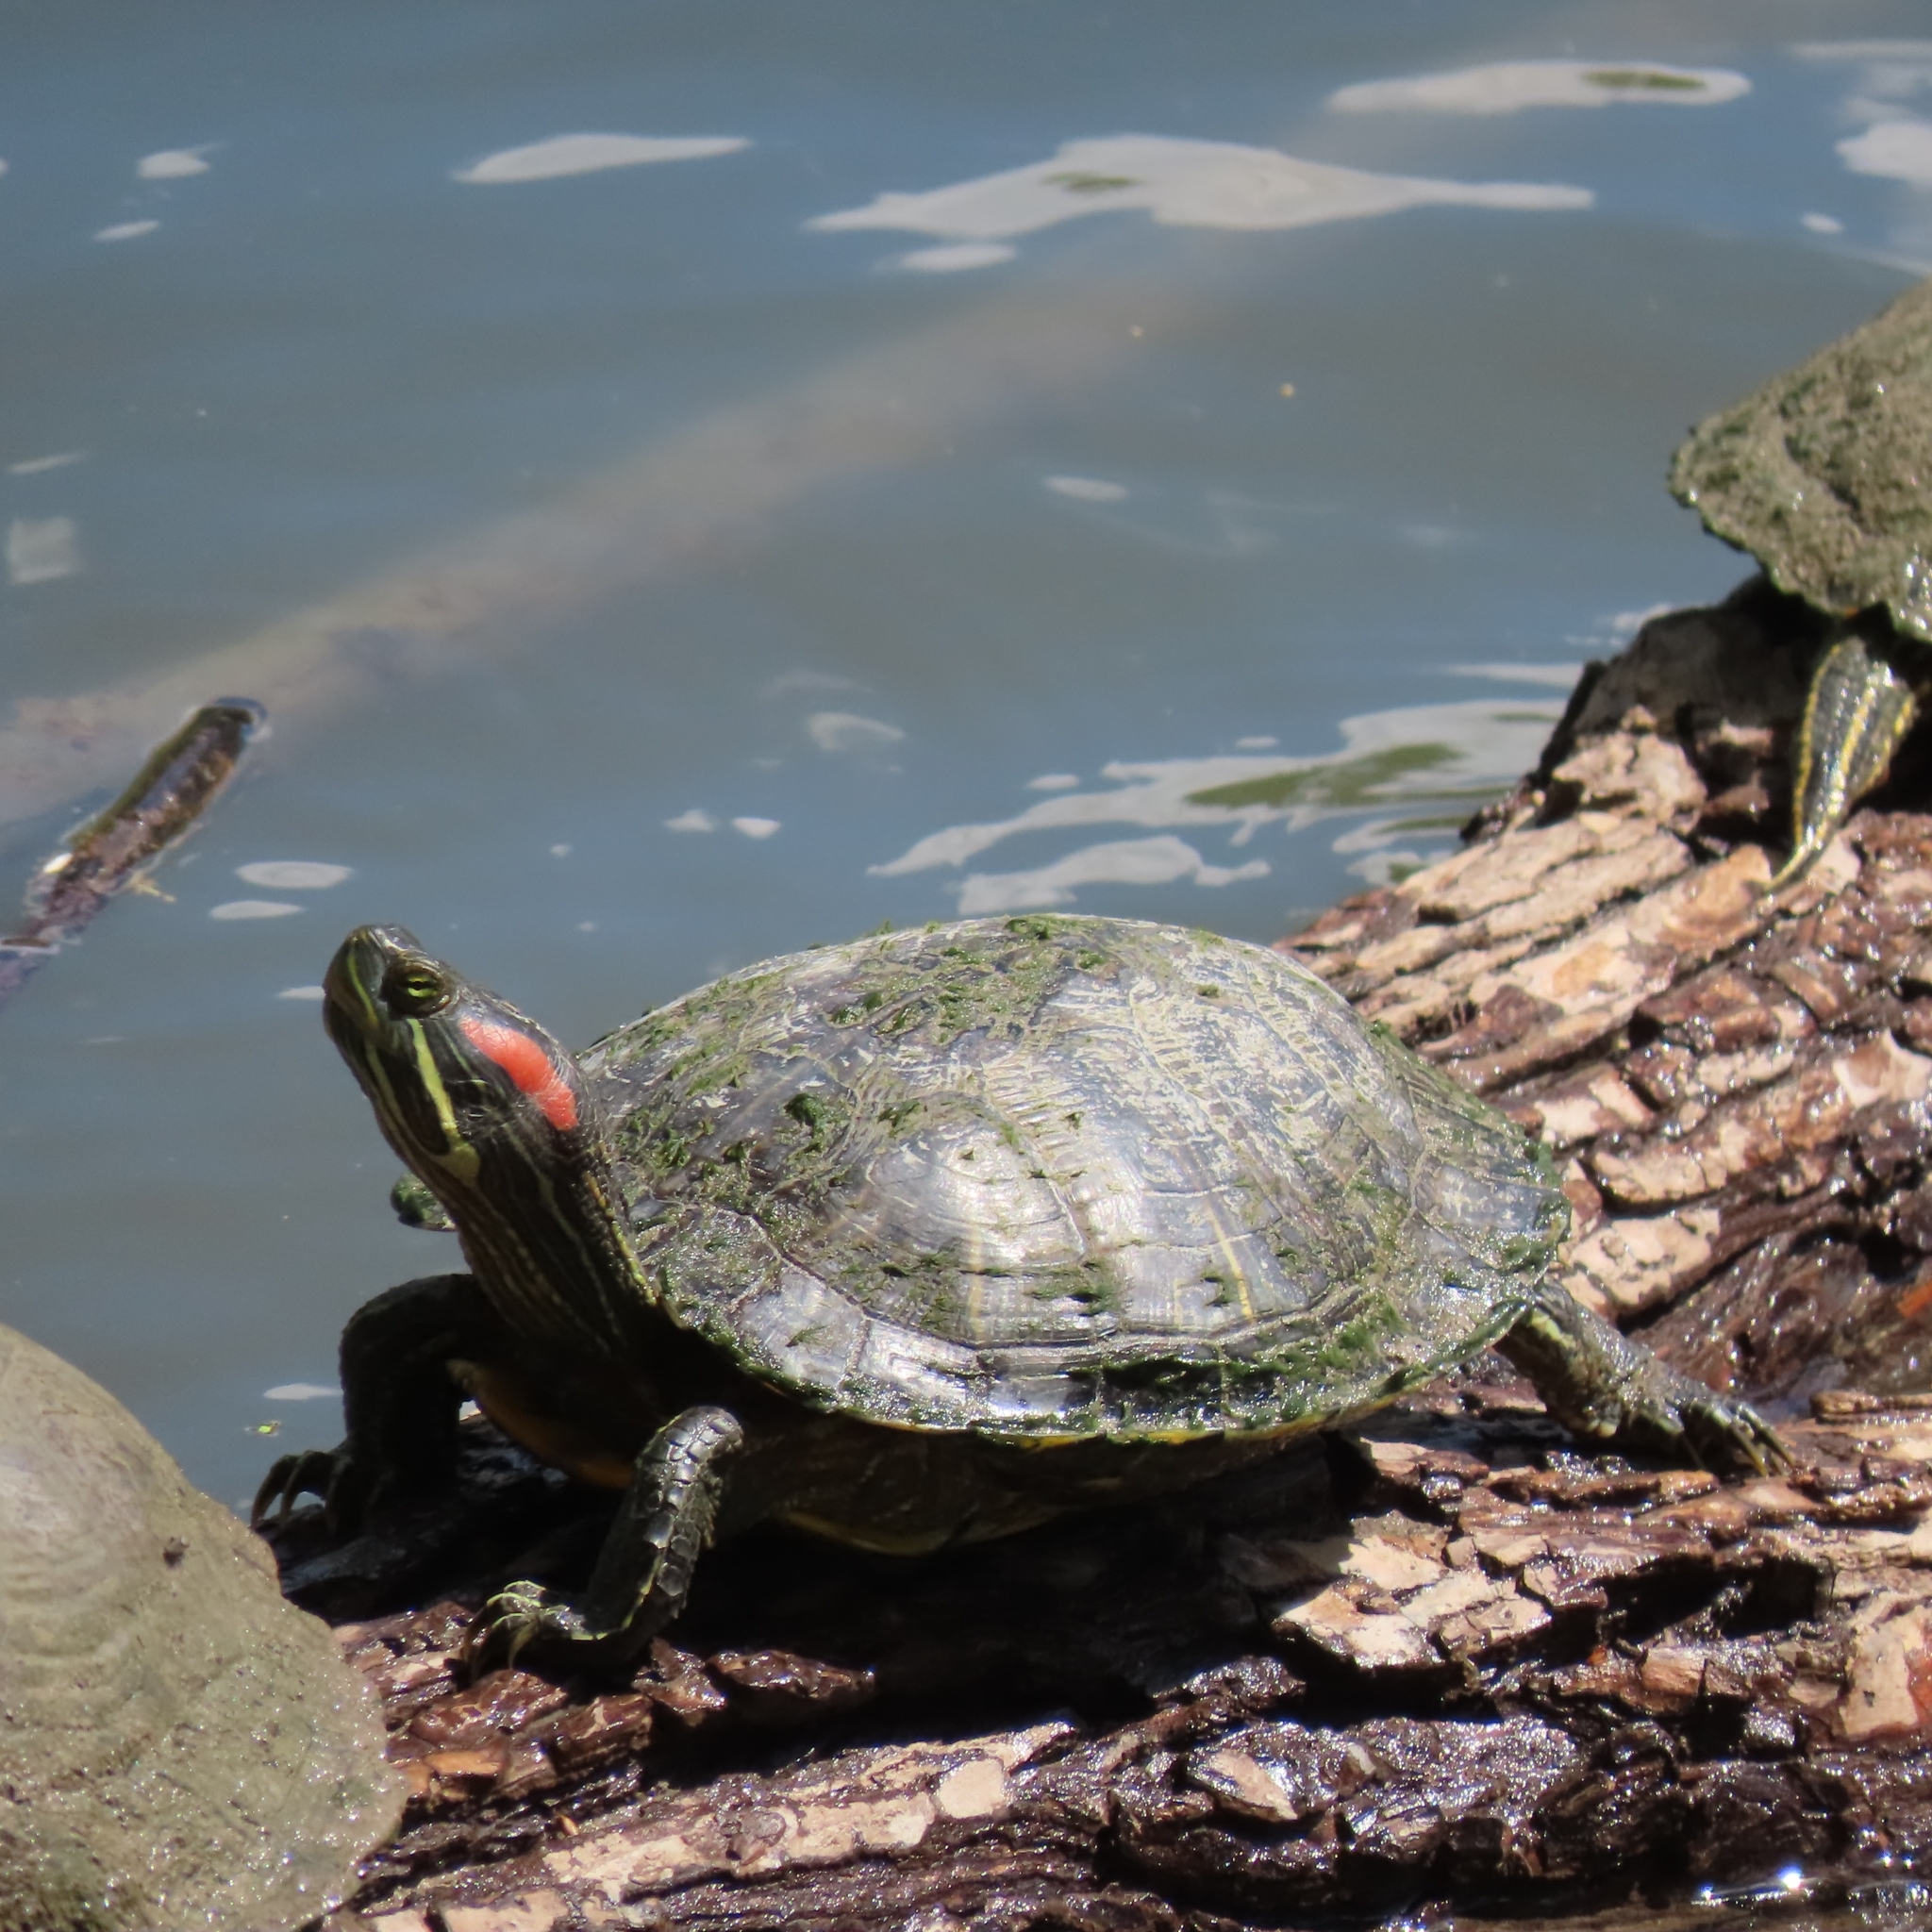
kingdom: Animalia
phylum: Chordata
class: Testudines
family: Emydidae
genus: Trachemys
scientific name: Trachemys scripta
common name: Slider
